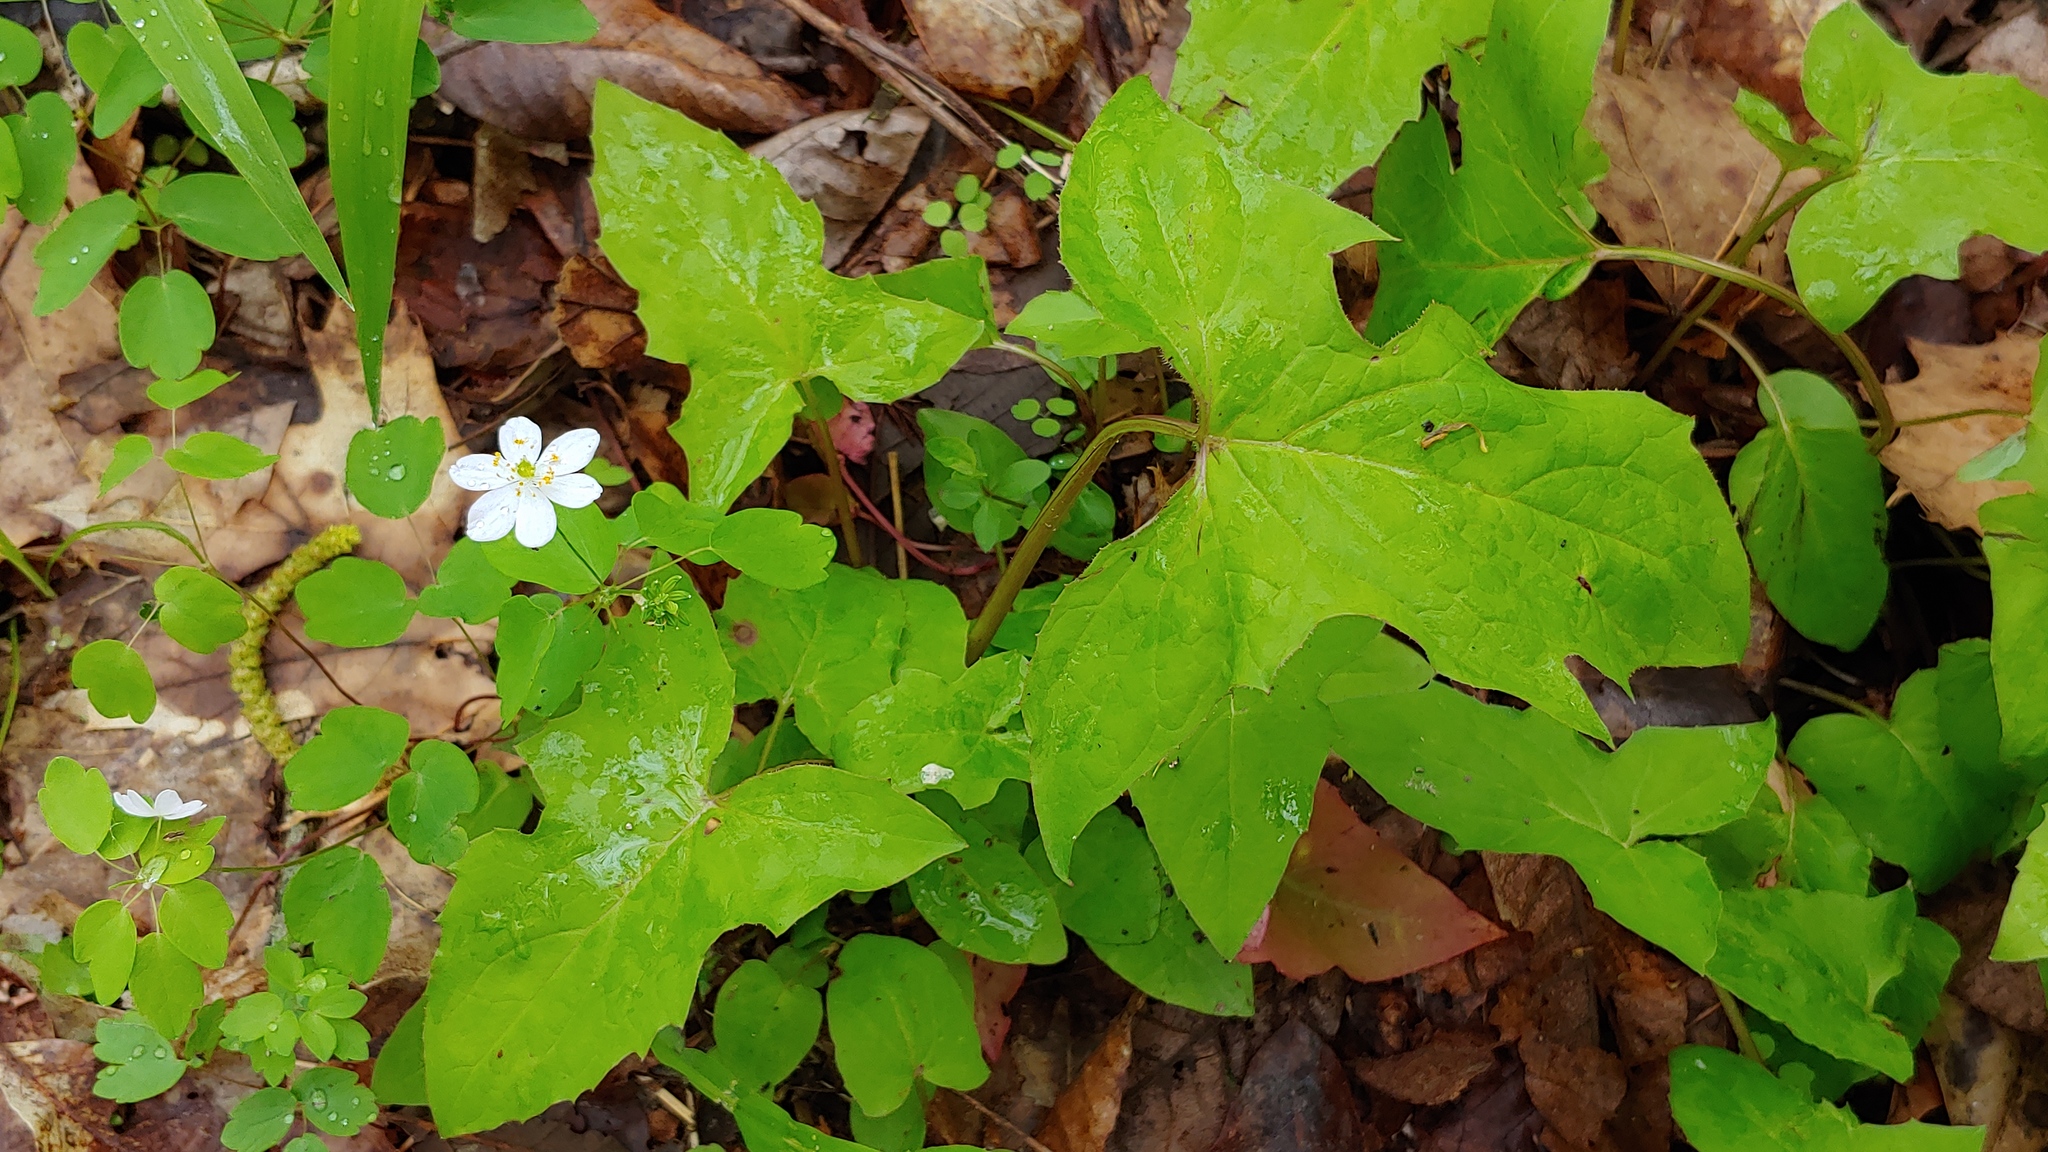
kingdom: Plantae
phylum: Tracheophyta
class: Magnoliopsida
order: Asterales
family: Asteraceae
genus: Nabalus
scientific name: Nabalus altissima
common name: Tall rattlesnakeroot
